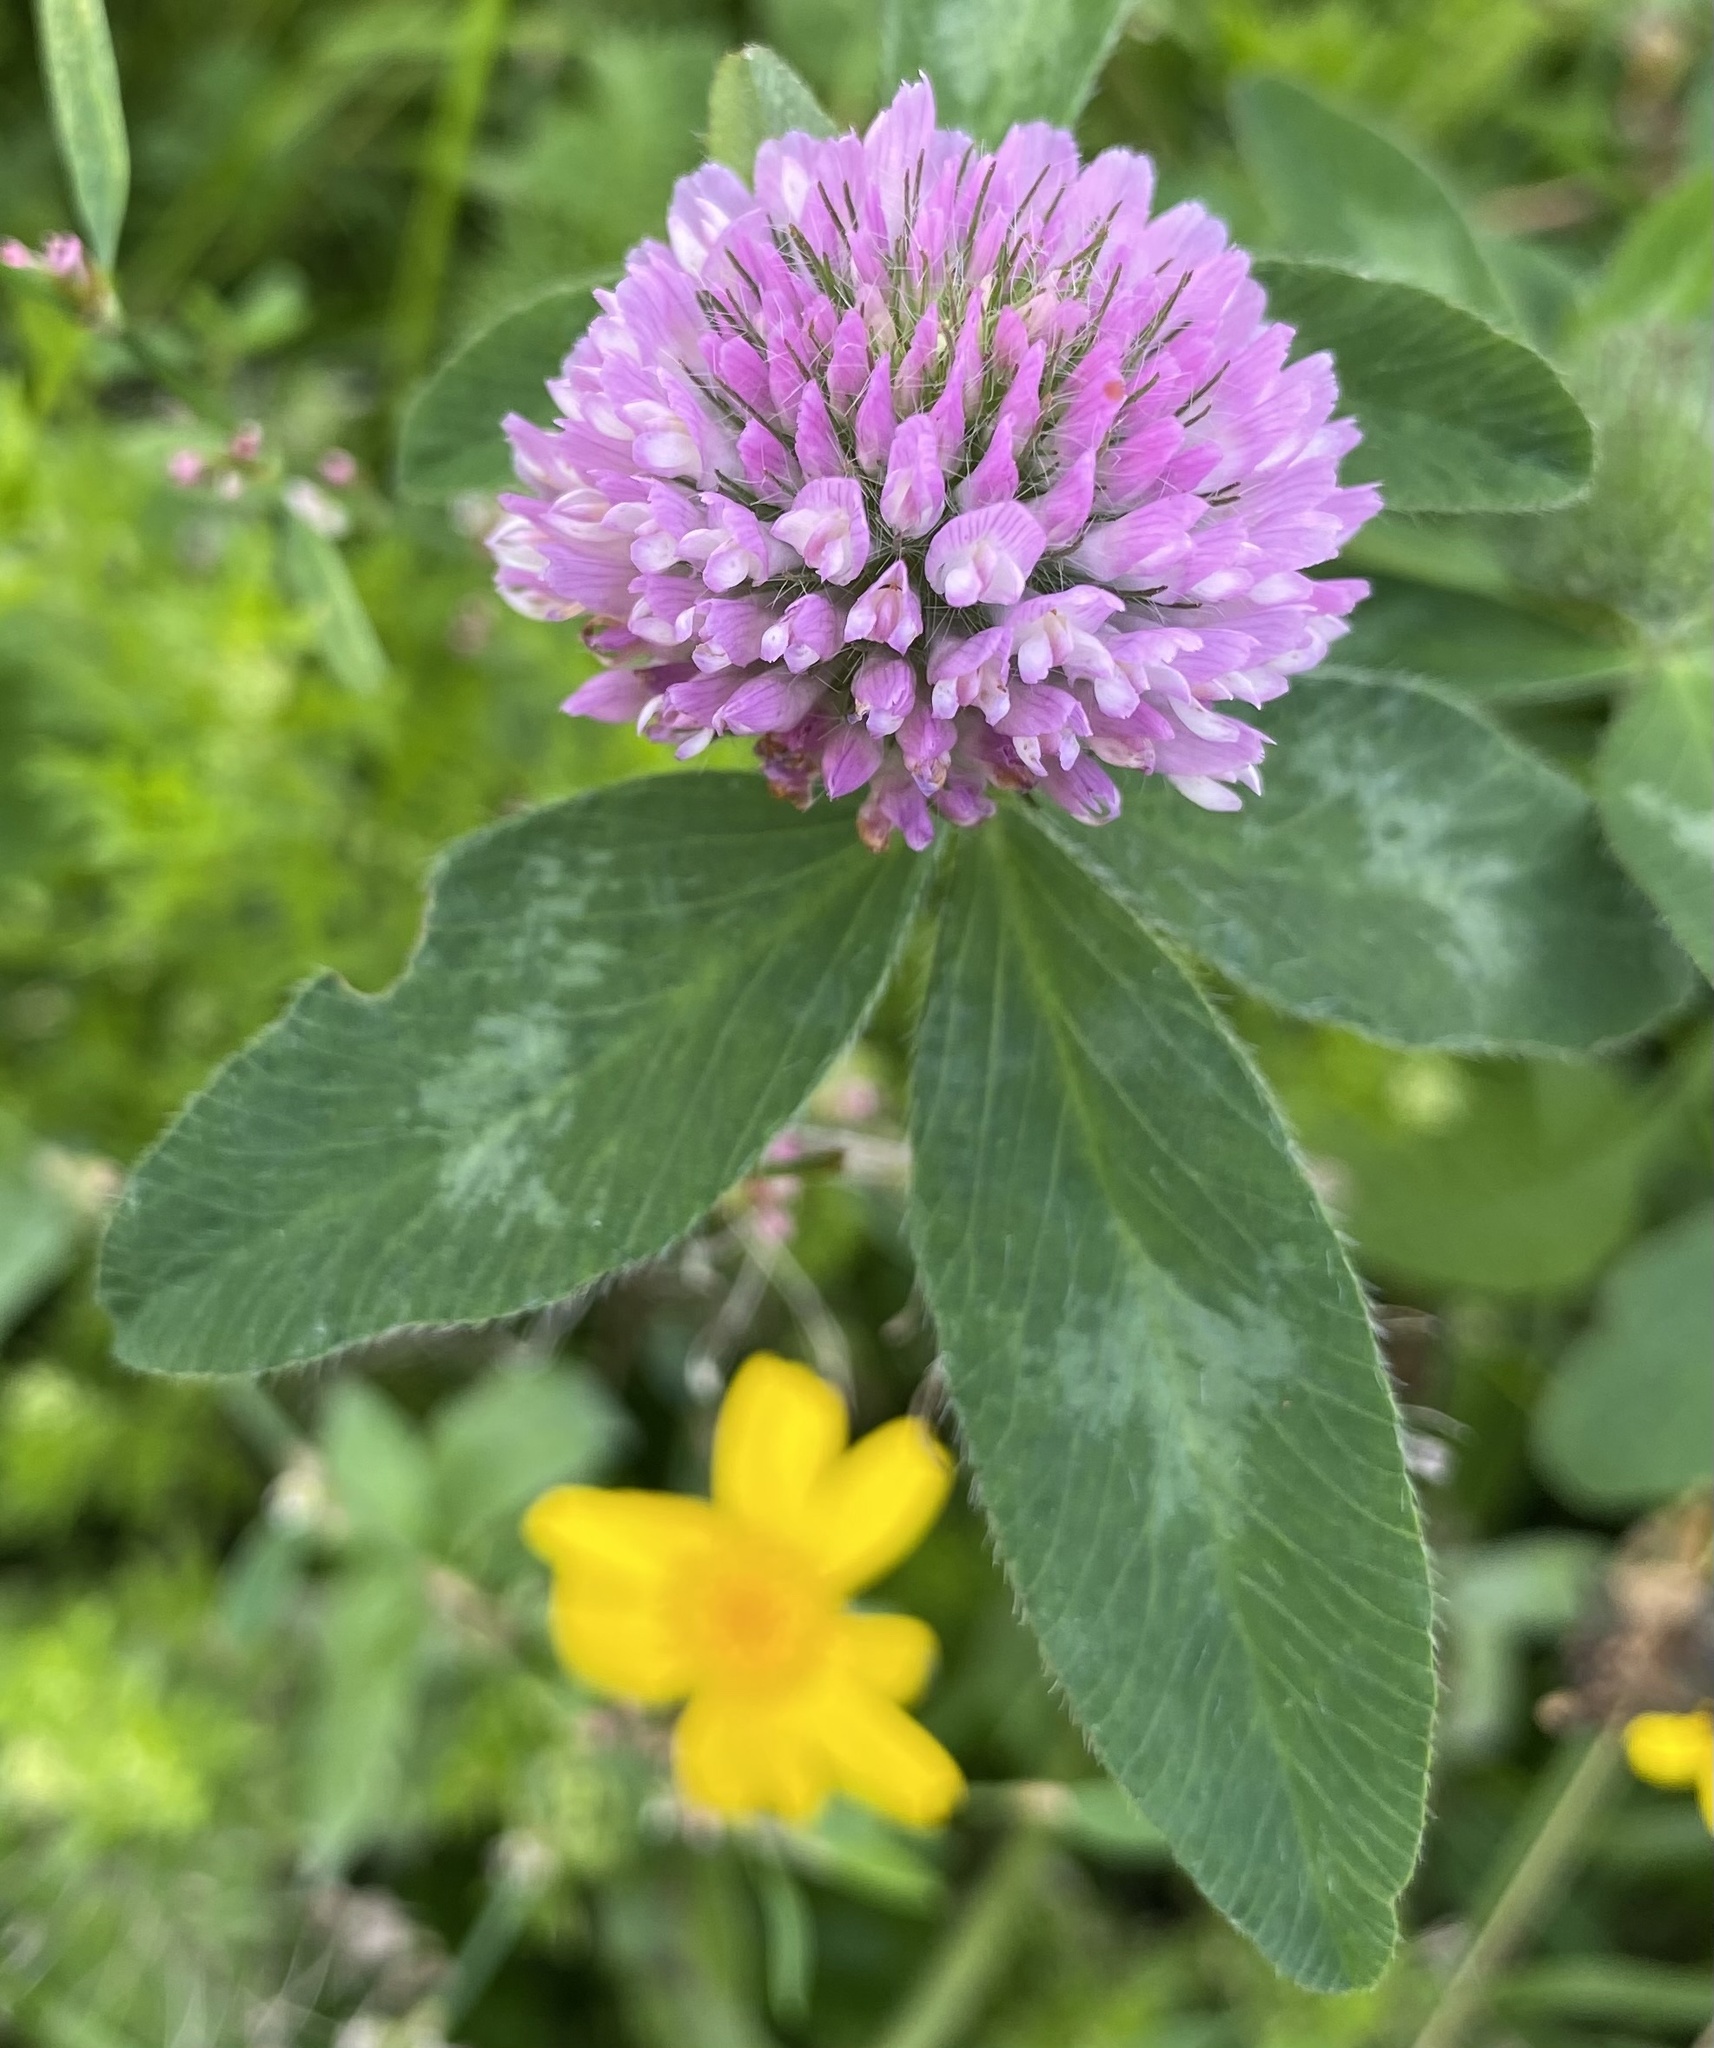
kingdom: Plantae
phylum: Tracheophyta
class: Magnoliopsida
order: Fabales
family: Fabaceae
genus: Trifolium
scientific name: Trifolium pratense
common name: Red clover
